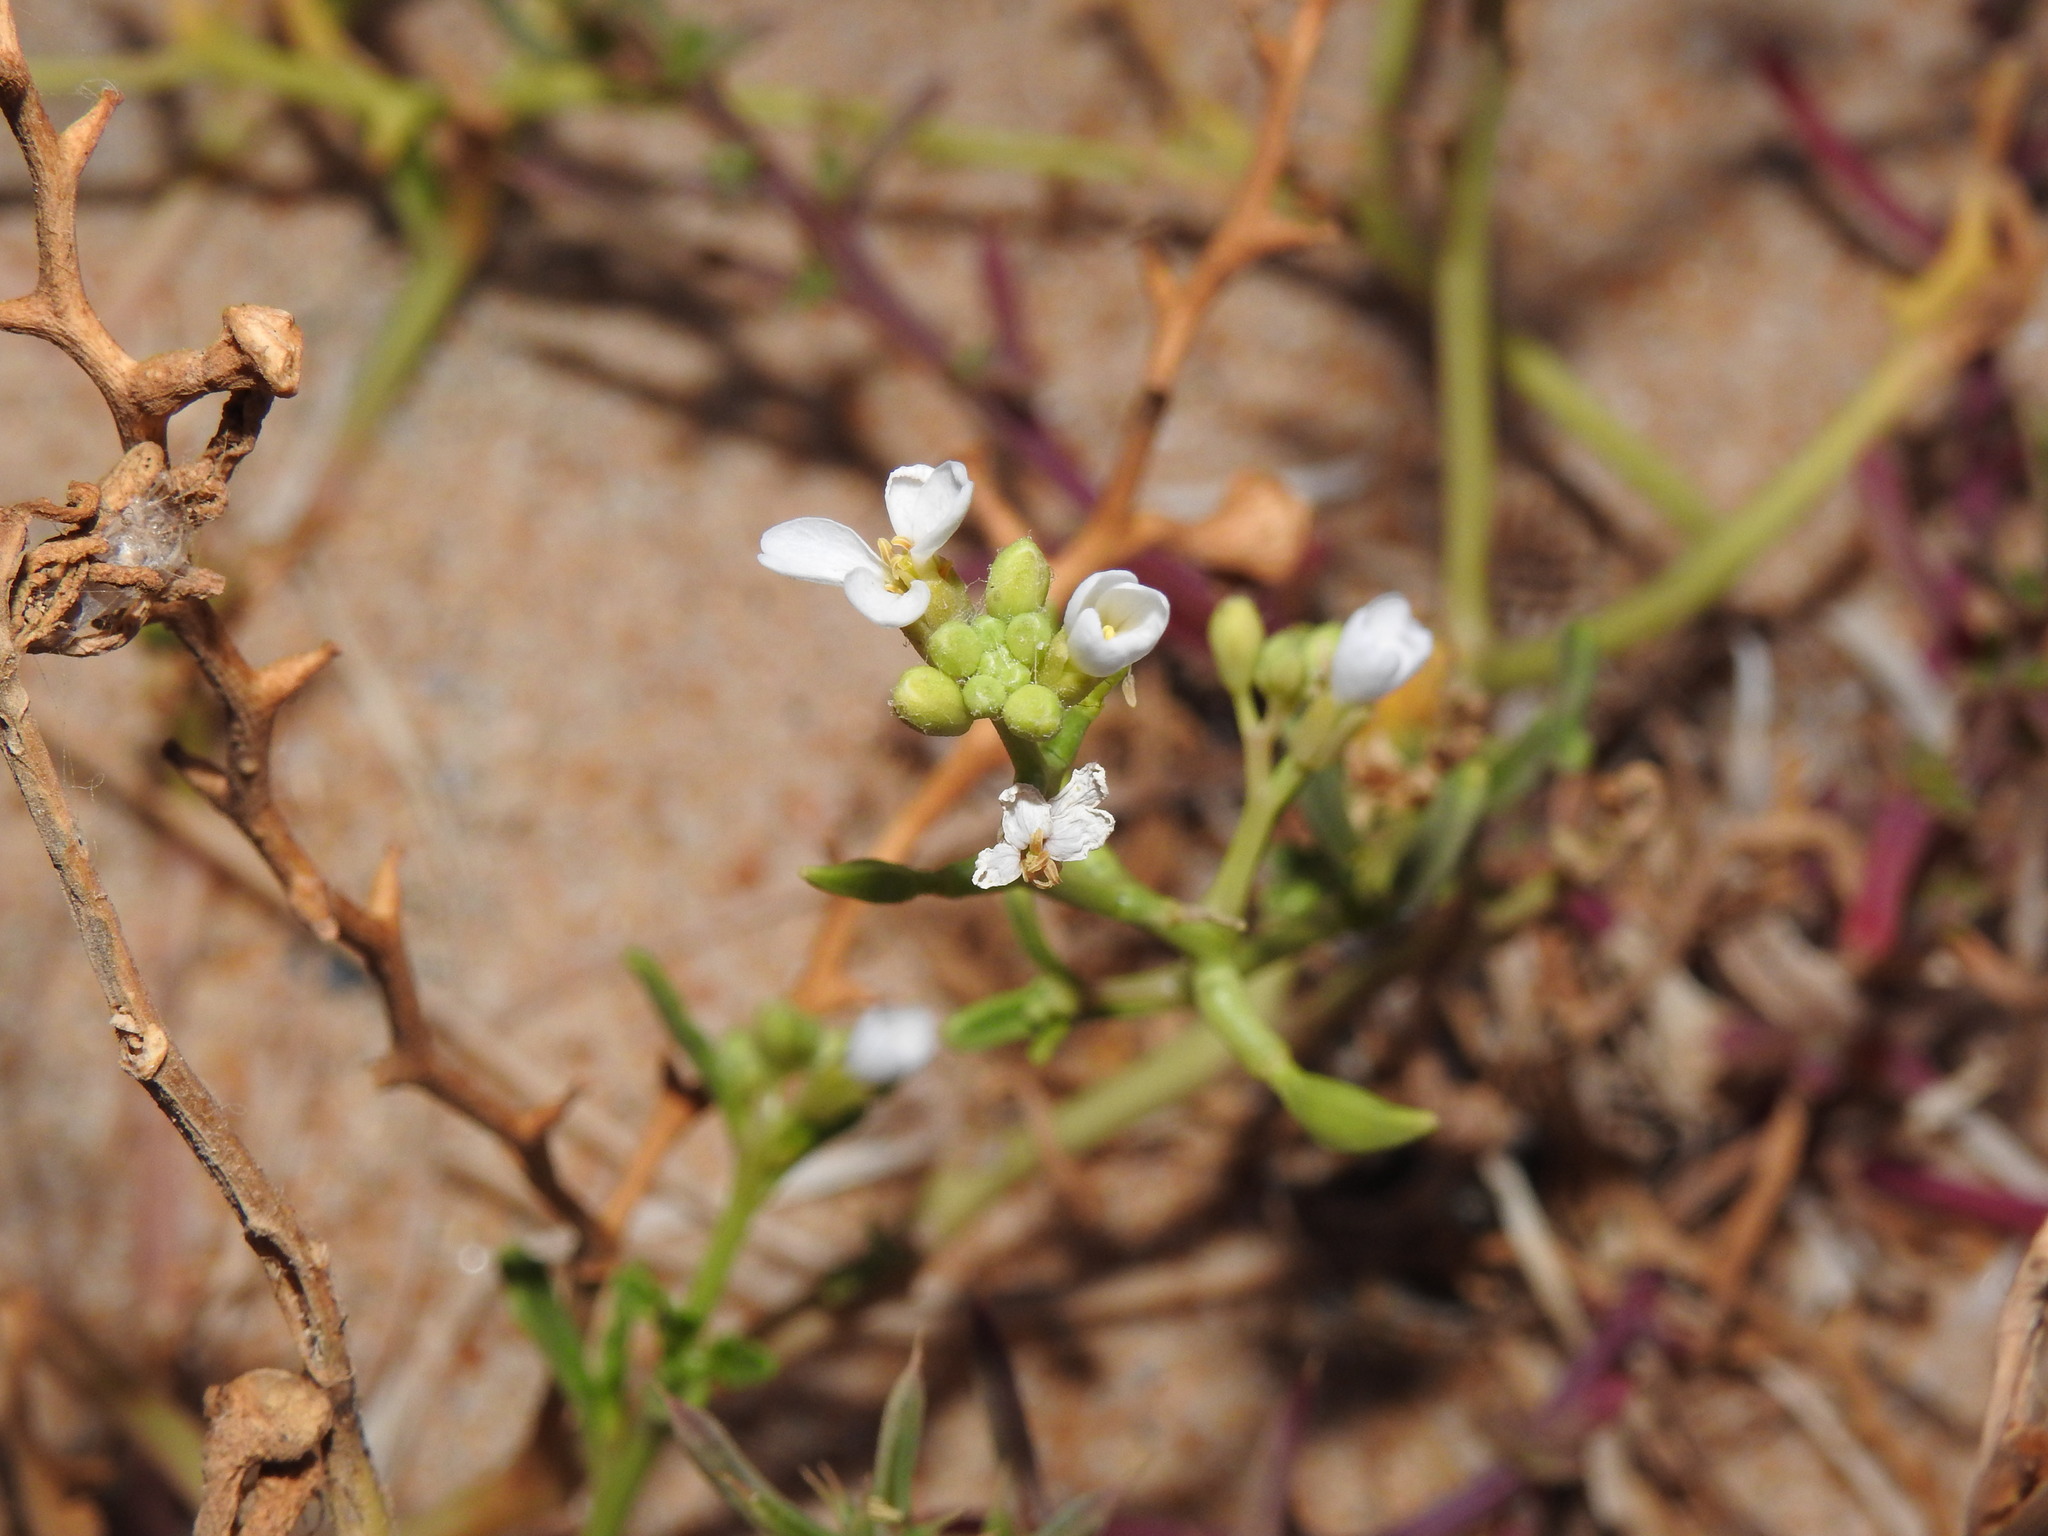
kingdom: Plantae
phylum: Tracheophyta
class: Magnoliopsida
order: Brassicales
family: Brassicaceae
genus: Cakile
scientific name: Cakile maritima
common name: Sea rocket
